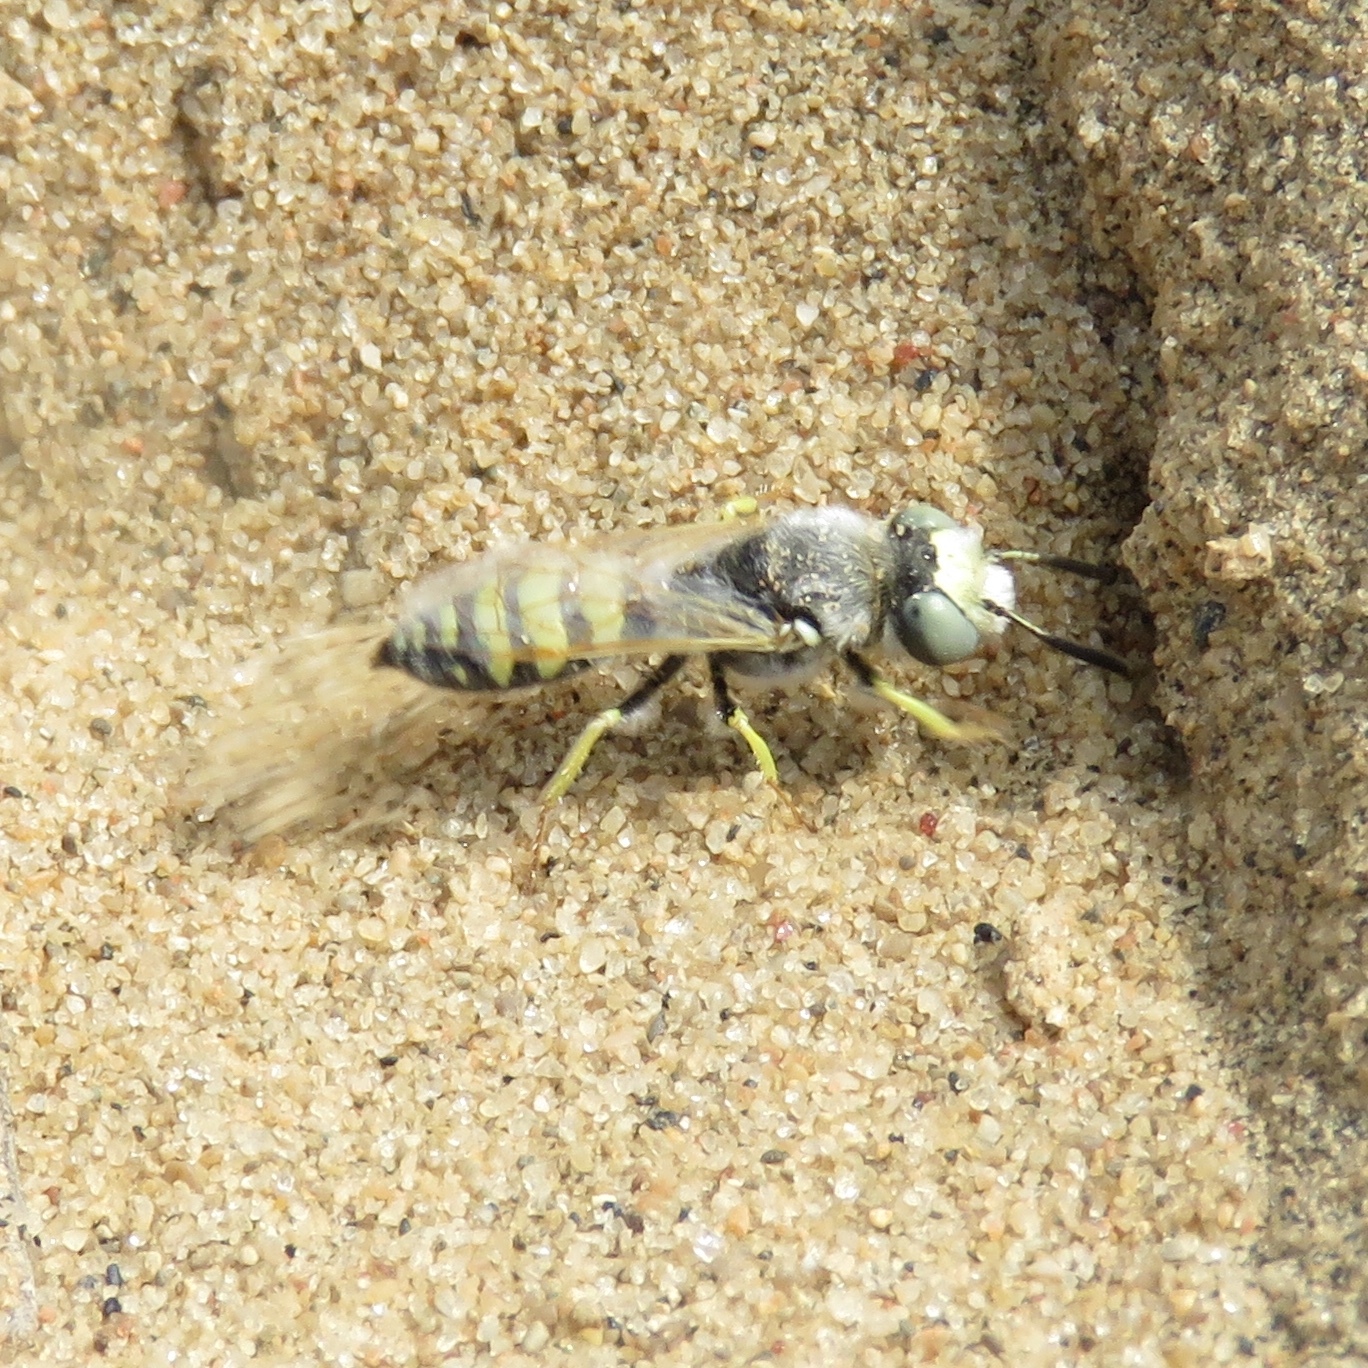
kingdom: Animalia
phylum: Arthropoda
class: Insecta
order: Hymenoptera
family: Crabronidae
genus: Philanthus
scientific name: Philanthus albopilosus
